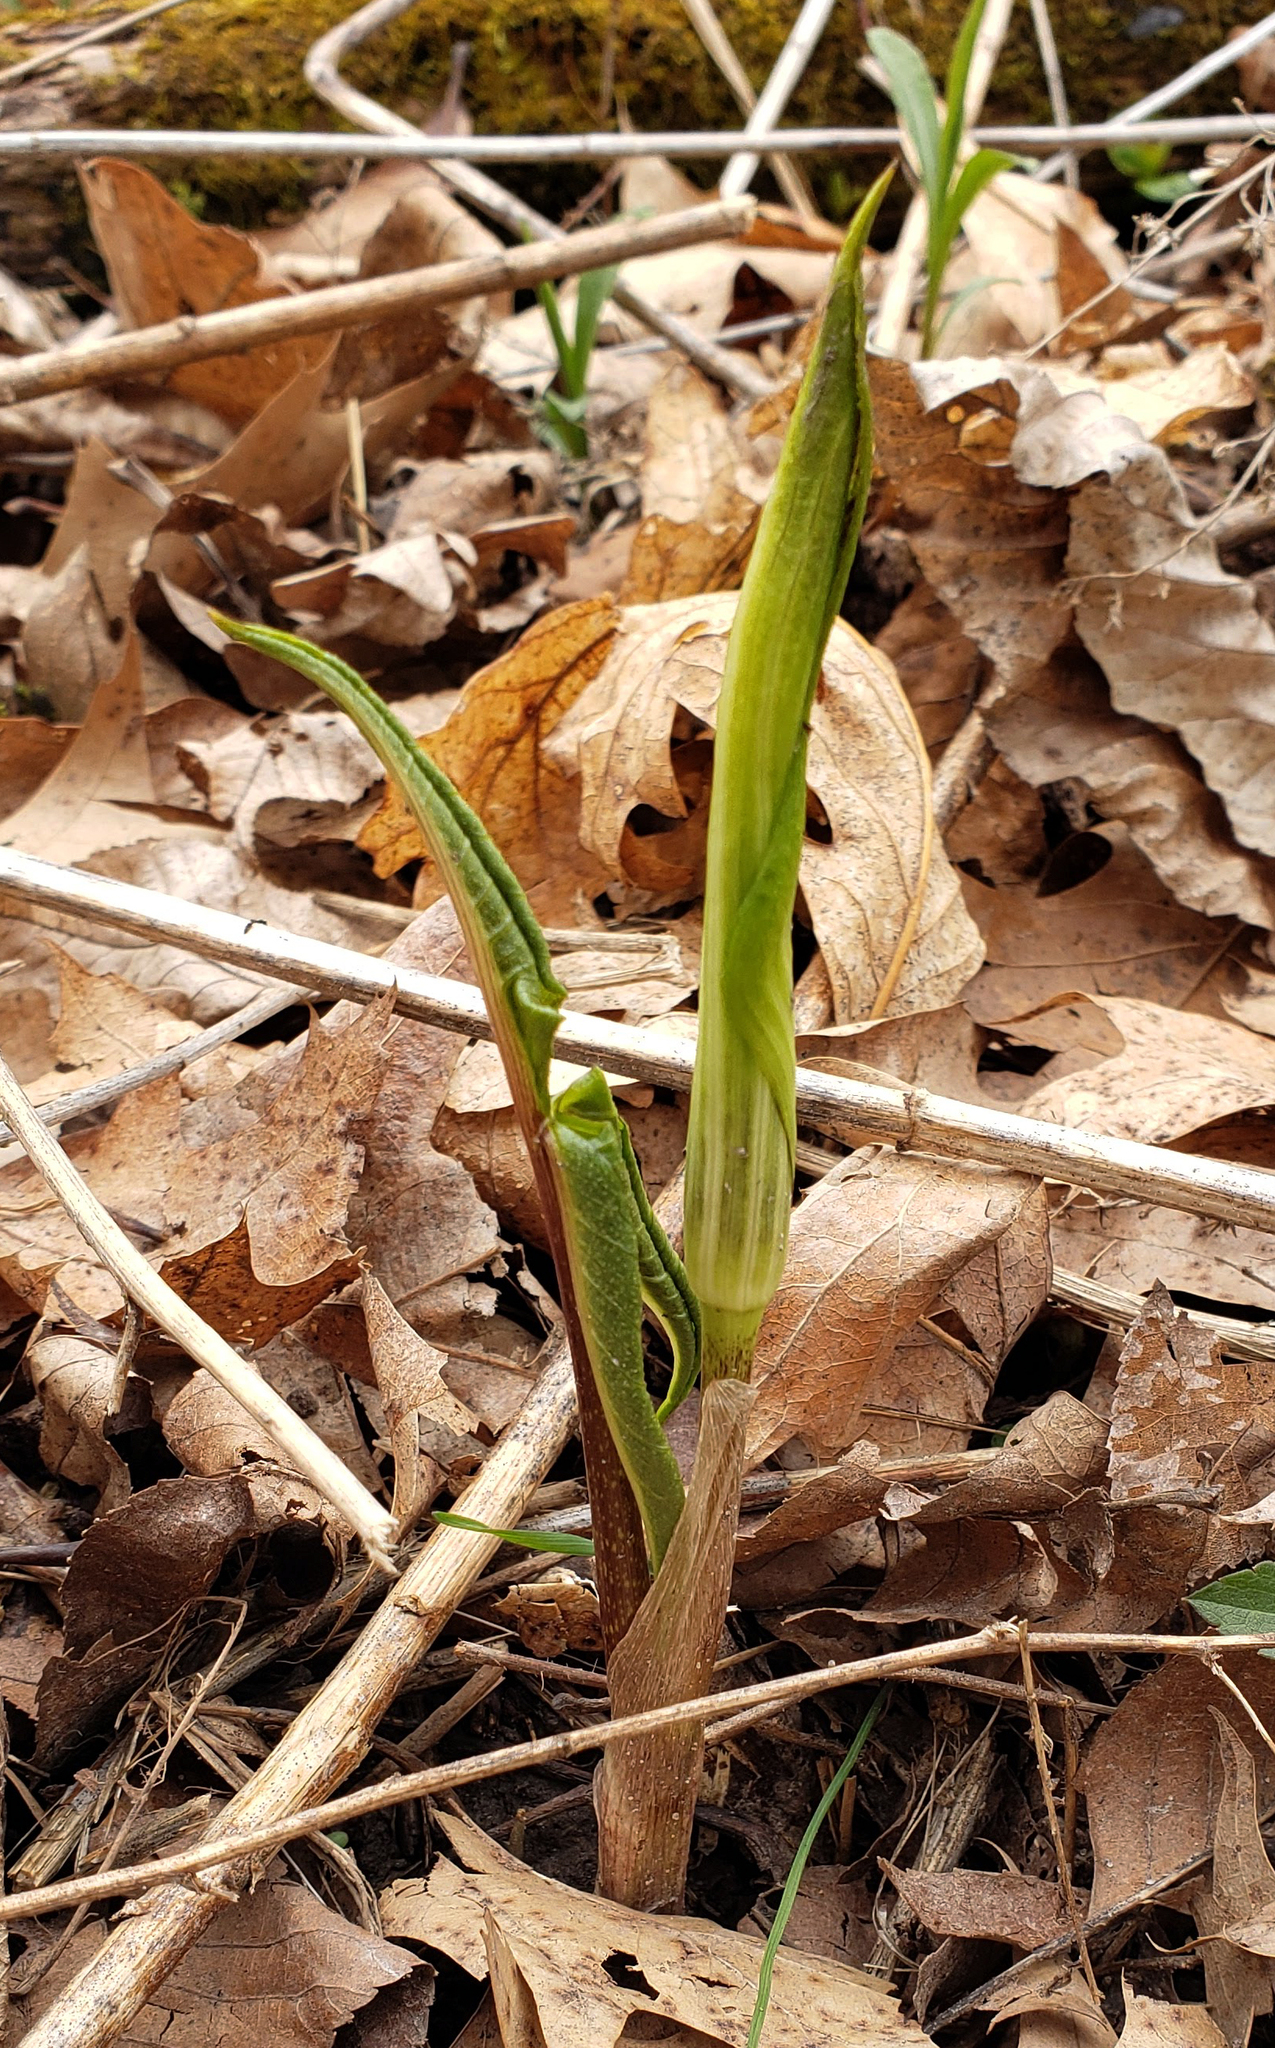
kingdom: Plantae
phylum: Tracheophyta
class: Liliopsida
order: Alismatales
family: Araceae
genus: Arisaema
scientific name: Arisaema triphyllum
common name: Jack-in-the-pulpit
